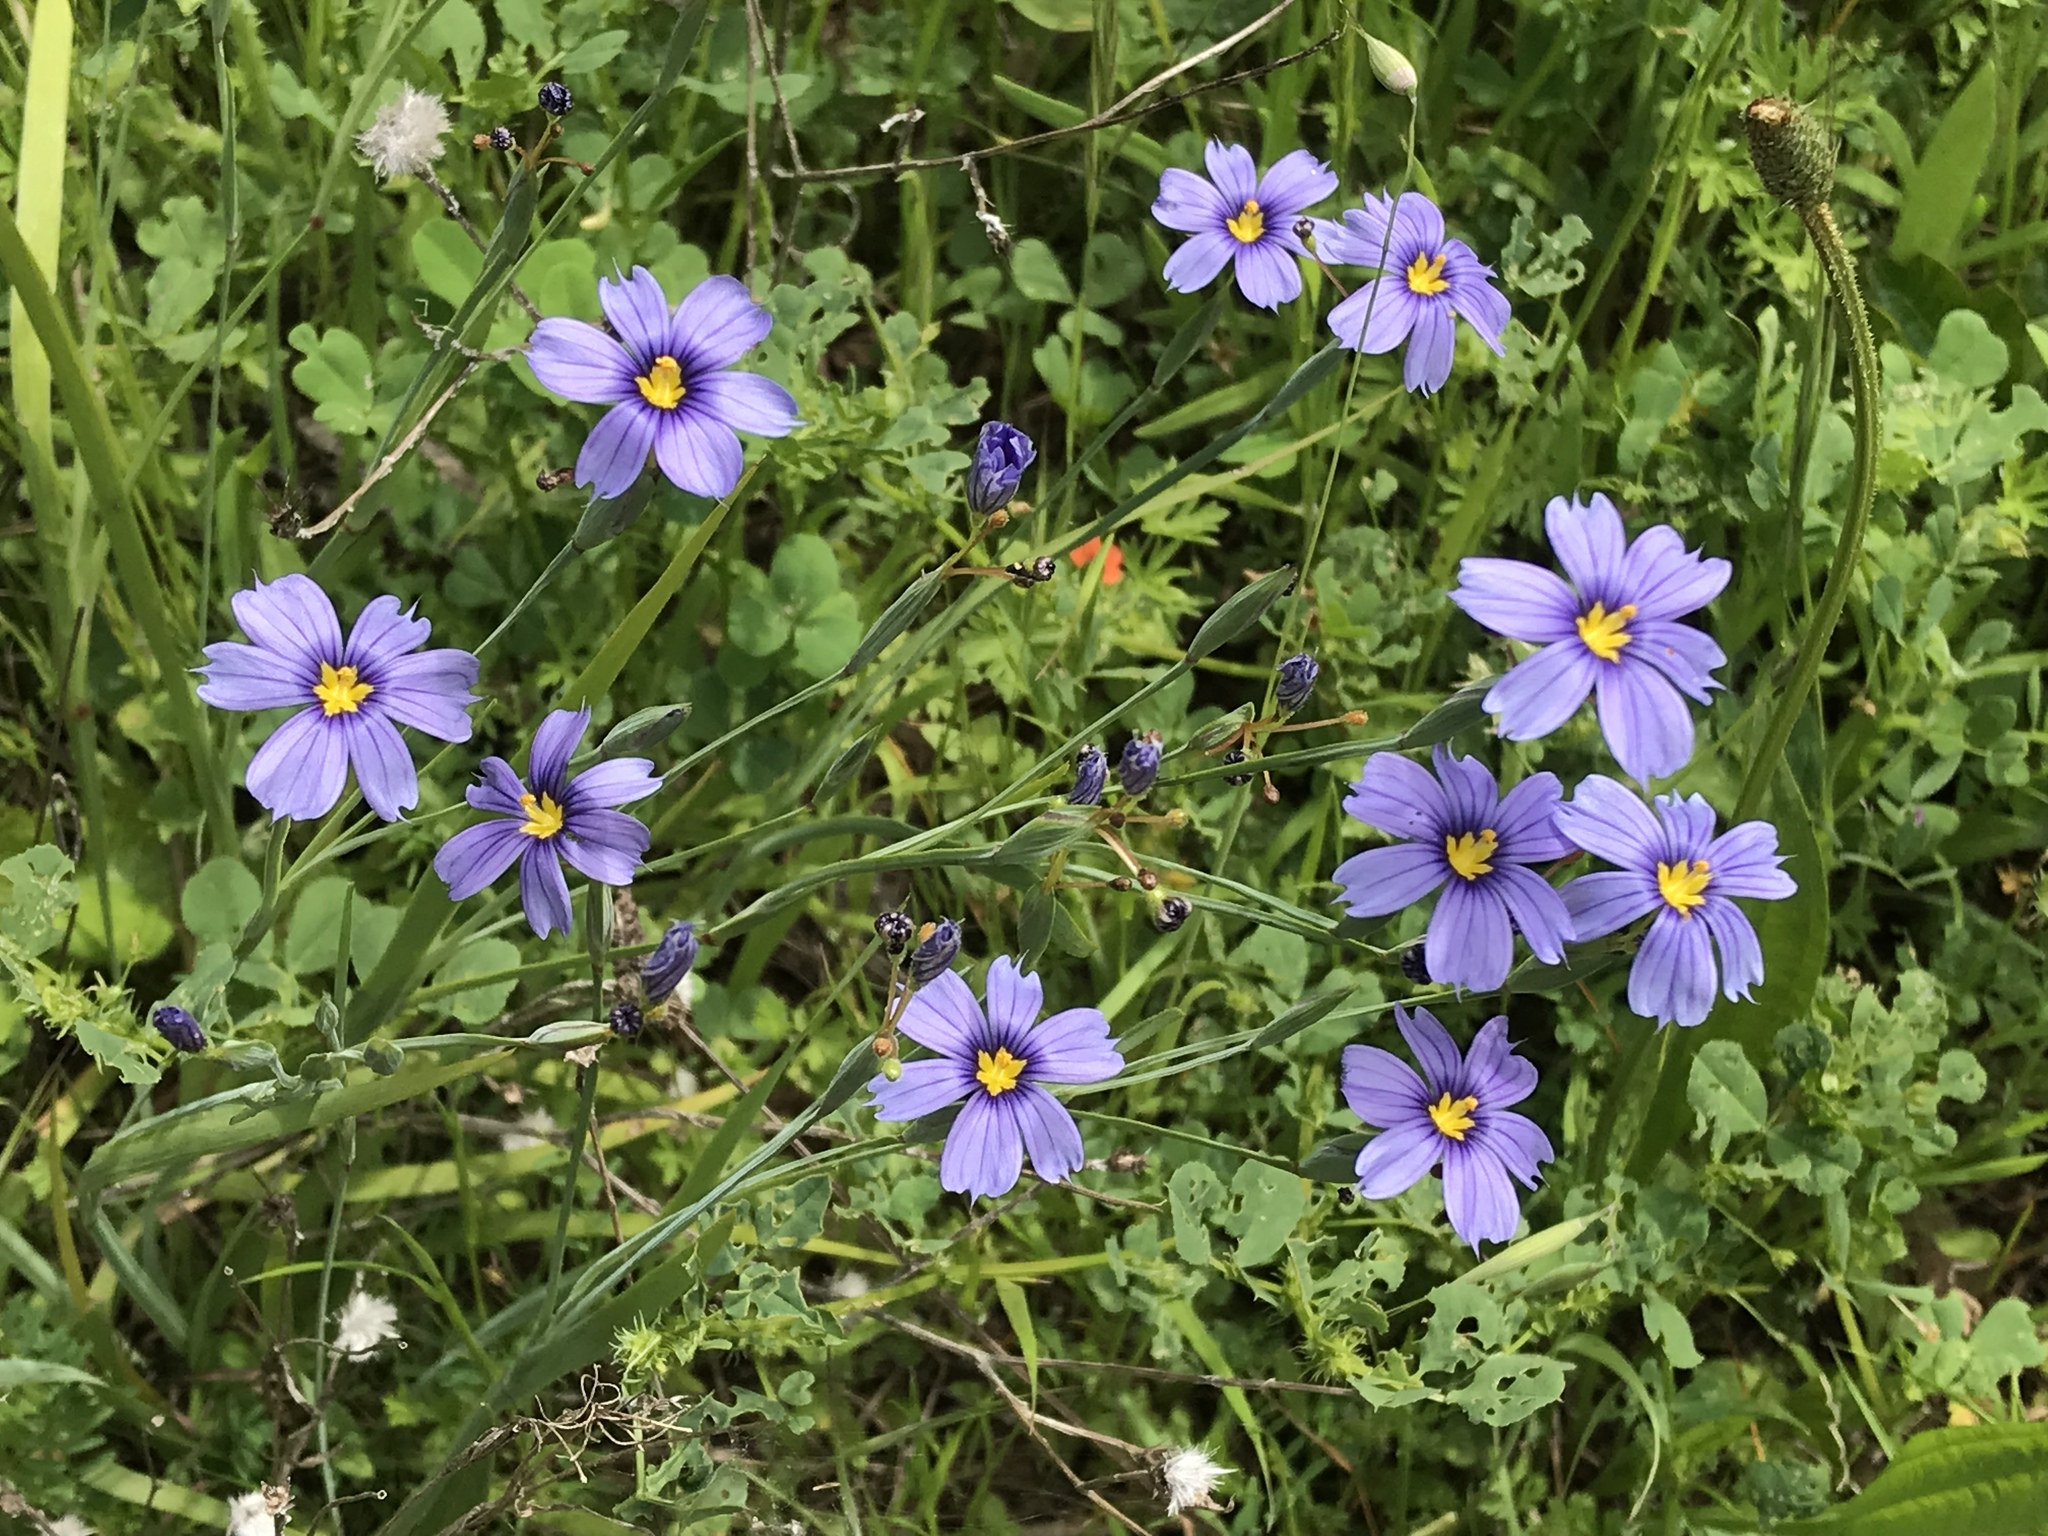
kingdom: Plantae
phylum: Tracheophyta
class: Liliopsida
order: Asparagales
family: Iridaceae
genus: Sisyrinchium
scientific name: Sisyrinchium bellum
